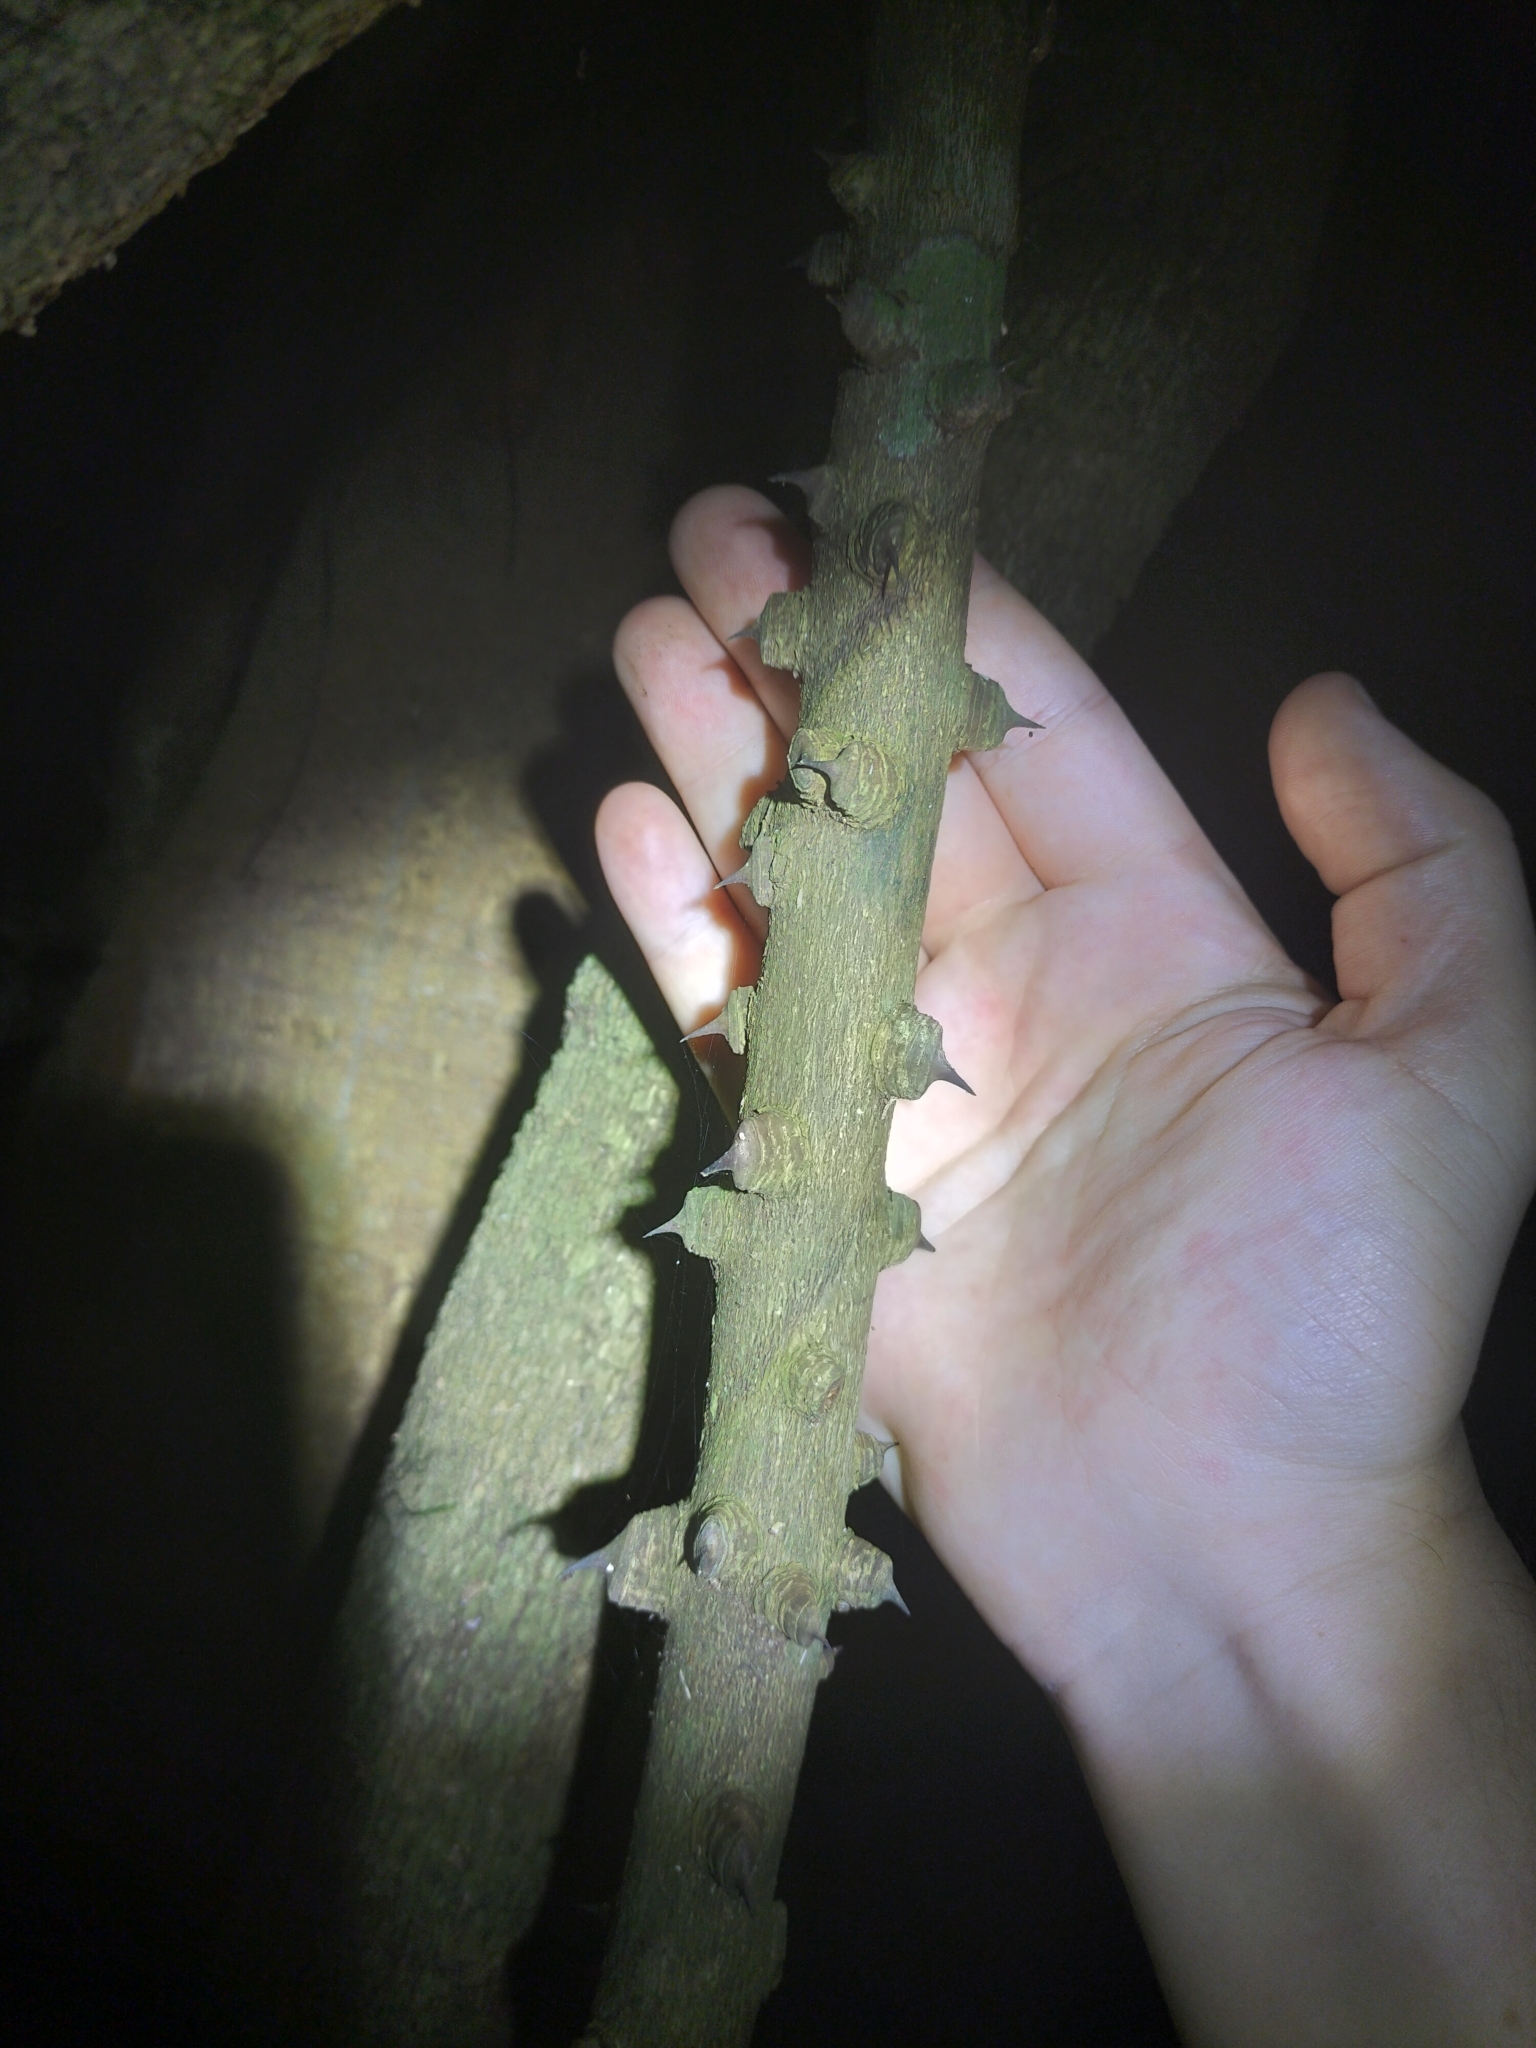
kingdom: Plantae
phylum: Tracheophyta
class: Magnoliopsida
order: Sapindales
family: Rutaceae
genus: Zanthoxylum
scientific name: Zanthoxylum nitidum
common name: Shiny-leaf prickly-ash
